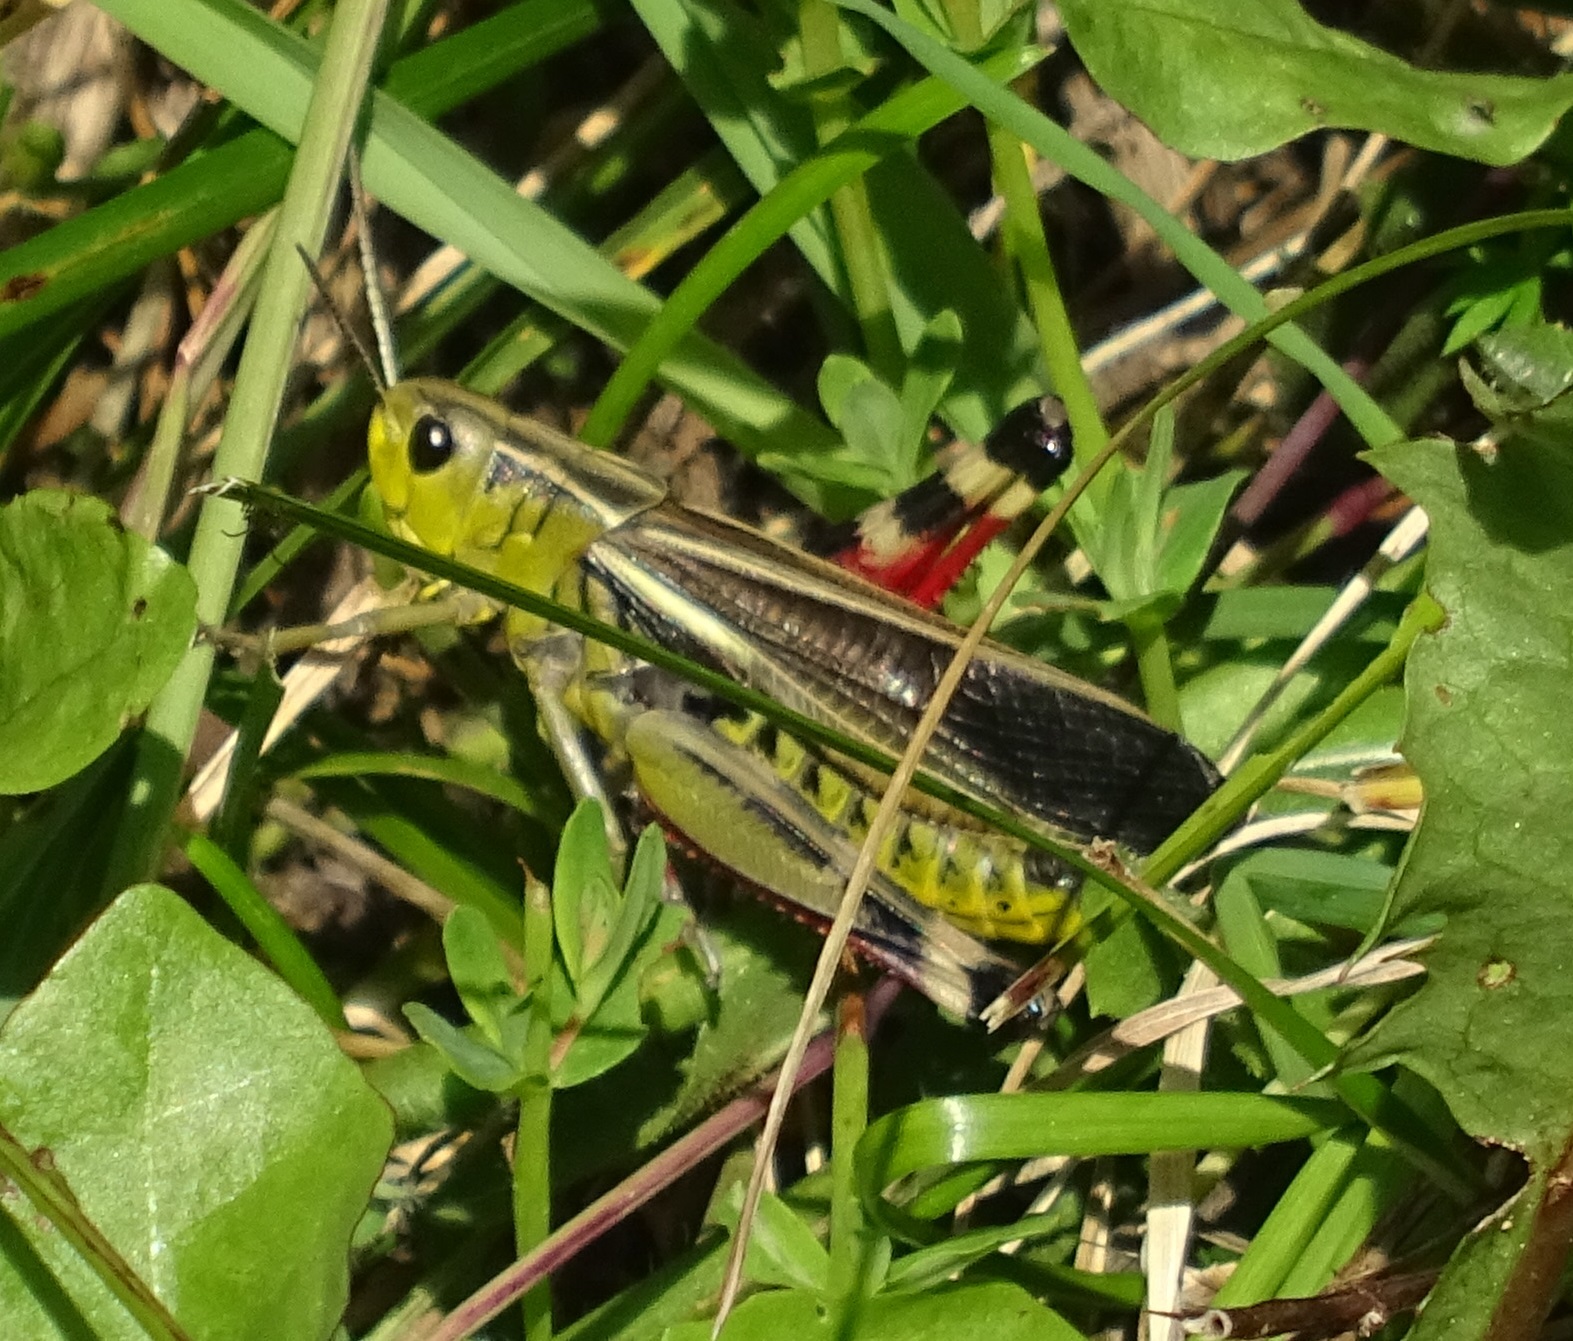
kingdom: Animalia
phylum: Arthropoda
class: Insecta
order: Orthoptera
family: Acrididae
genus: Arcyptera
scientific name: Arcyptera fusca
